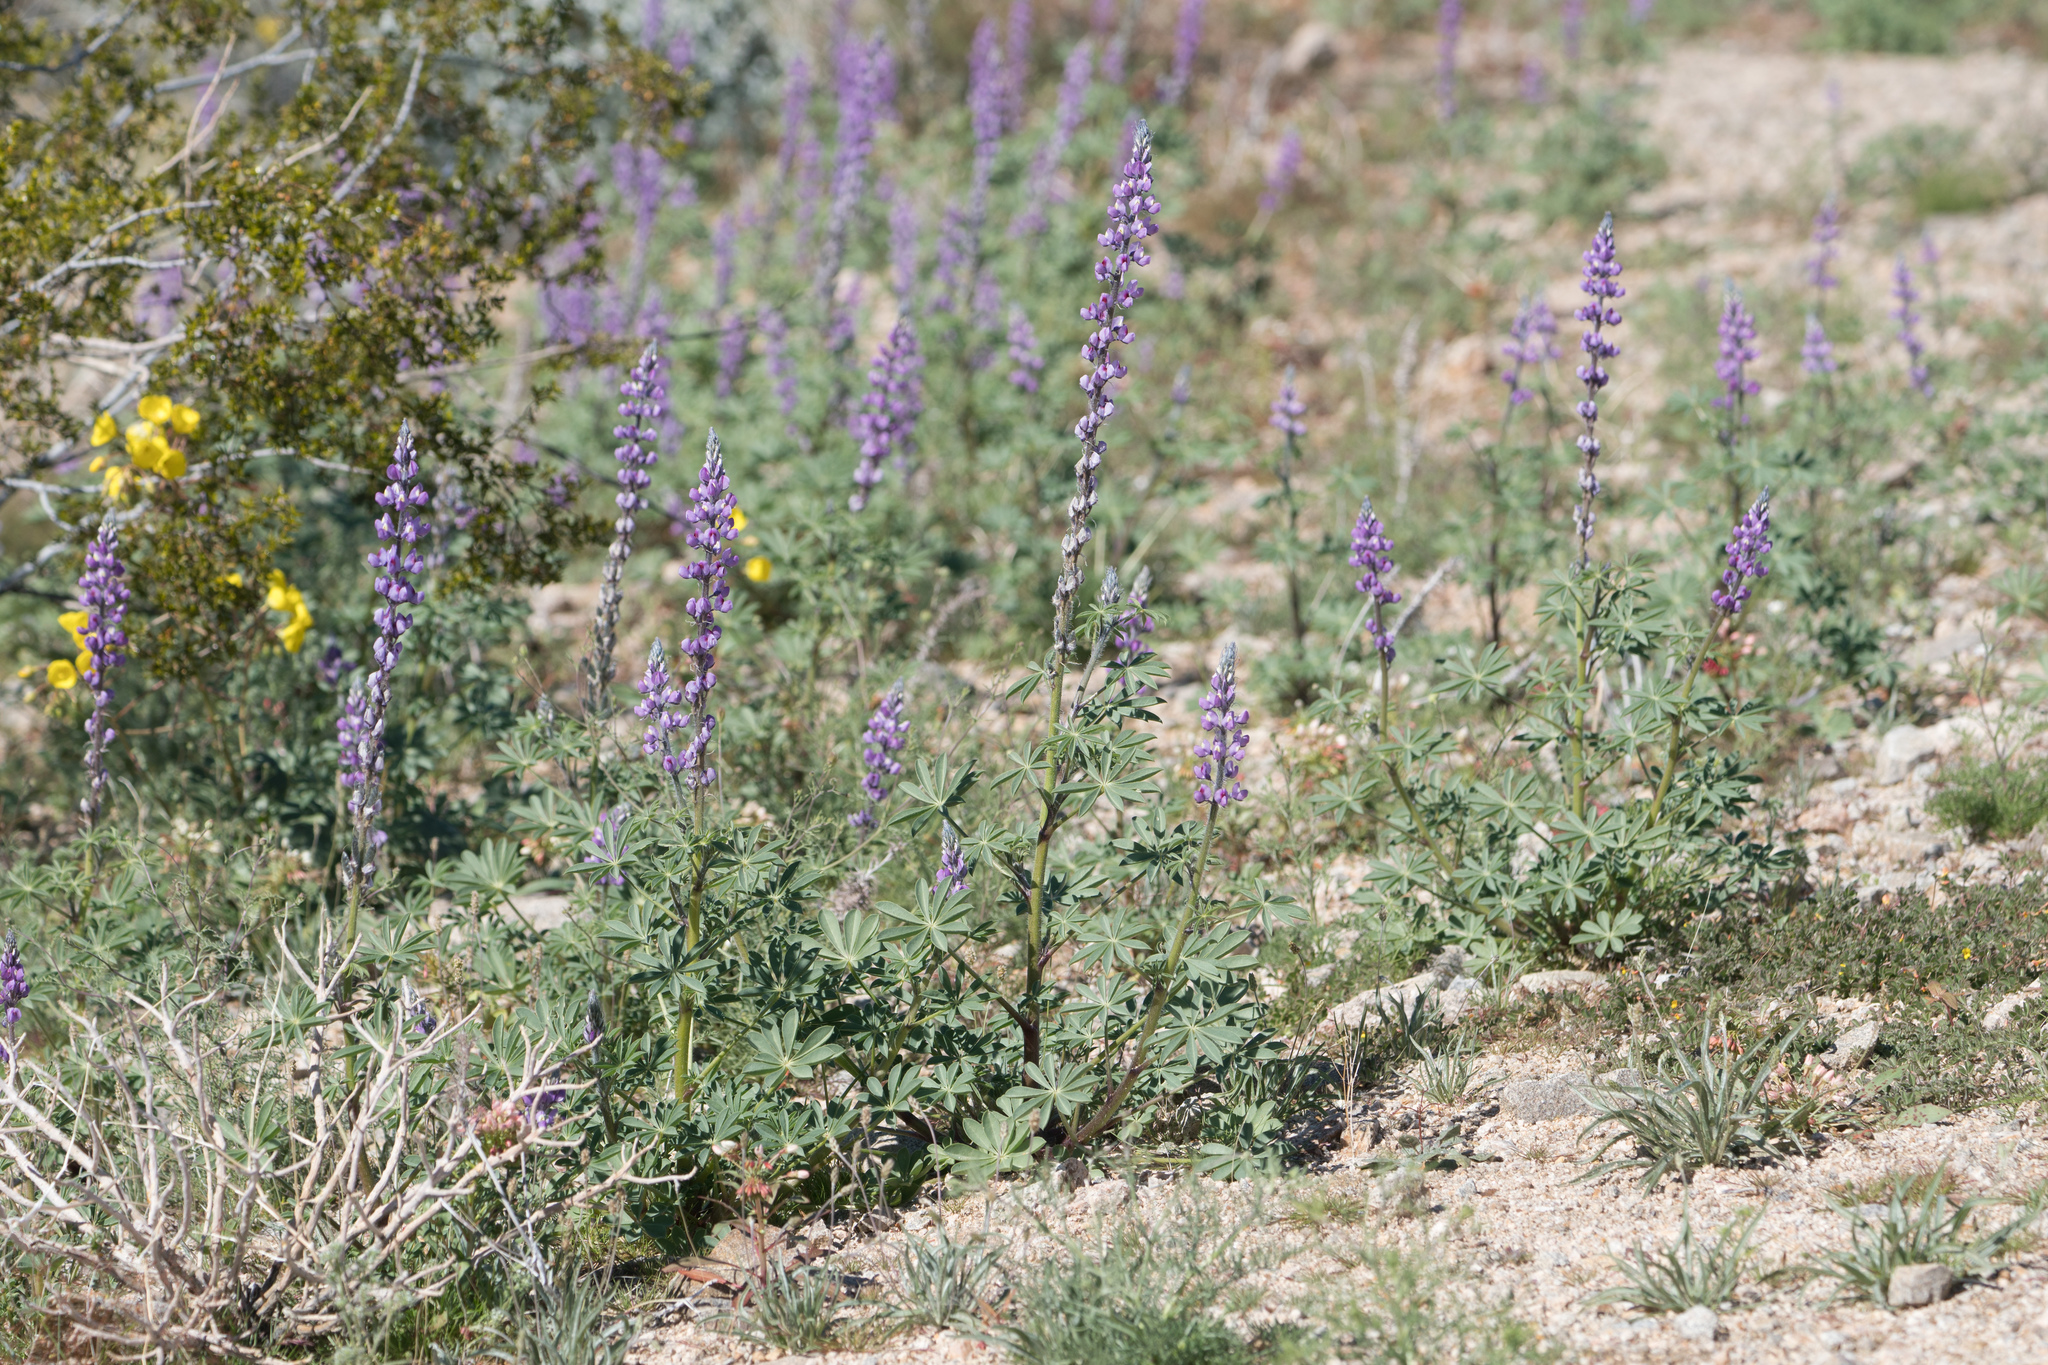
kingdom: Plantae
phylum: Tracheophyta
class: Magnoliopsida
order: Fabales
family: Fabaceae
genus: Lupinus
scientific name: Lupinus arizonicus
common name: Arizona lupine
